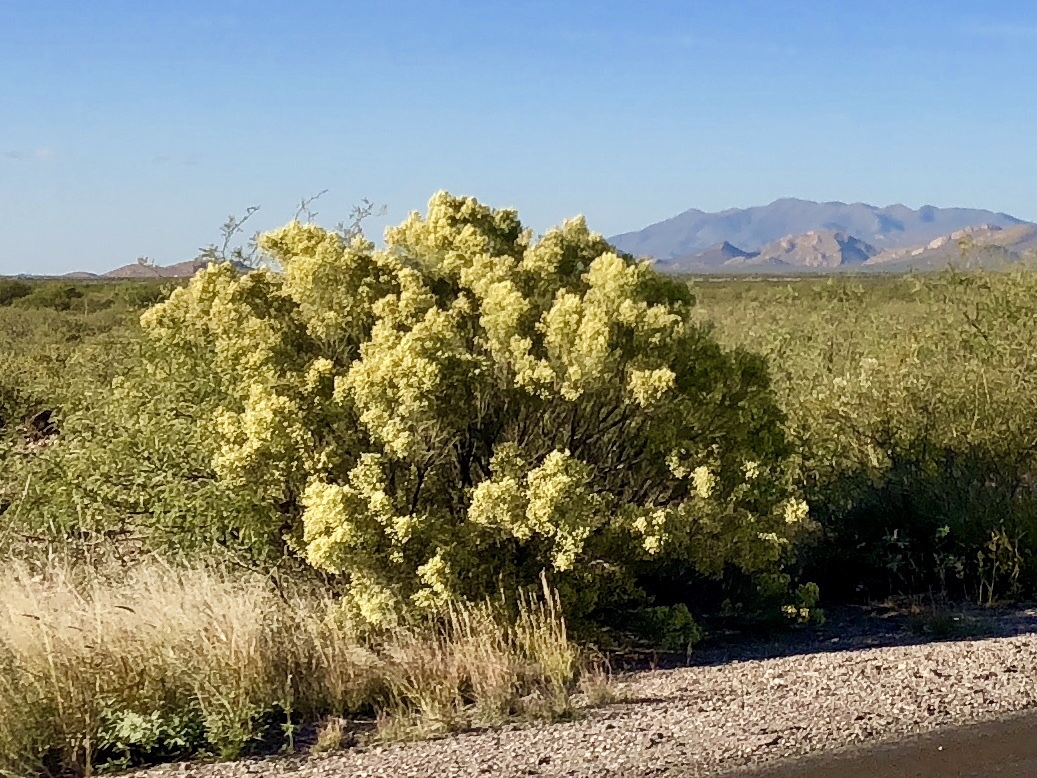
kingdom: Plantae
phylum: Tracheophyta
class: Magnoliopsida
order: Asterales
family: Asteraceae
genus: Baccharis
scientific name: Baccharis sarothroides
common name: Desert-broom
